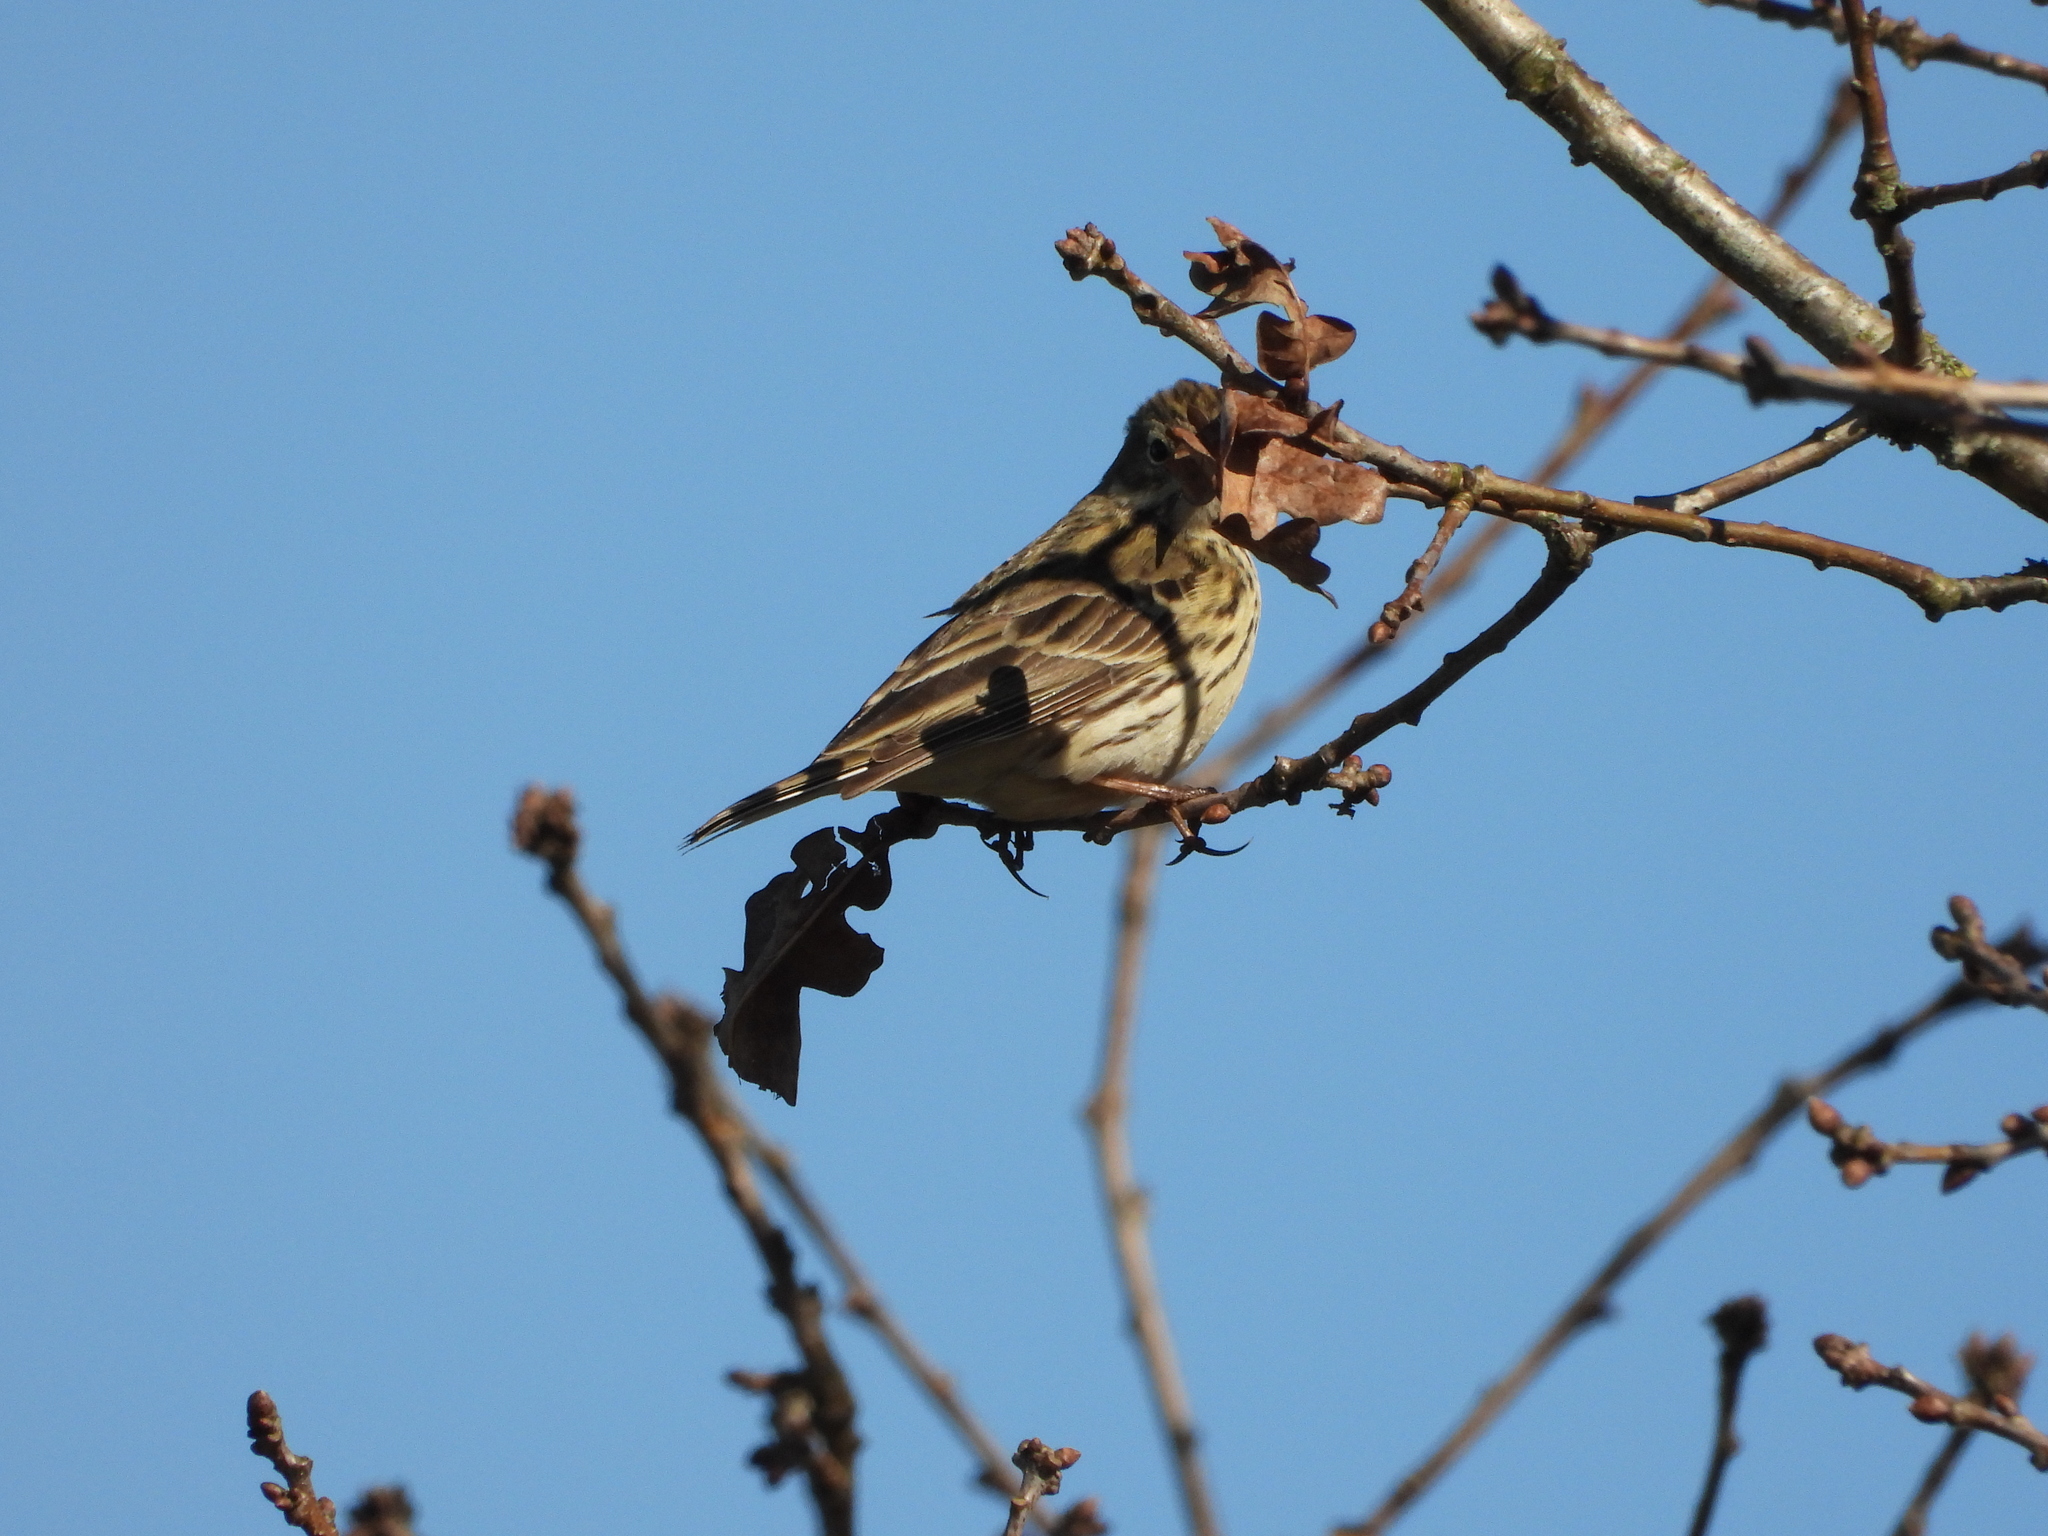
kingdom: Animalia
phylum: Chordata
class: Aves
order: Passeriformes
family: Motacillidae
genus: Anthus
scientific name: Anthus pratensis
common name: Meadow pipit
